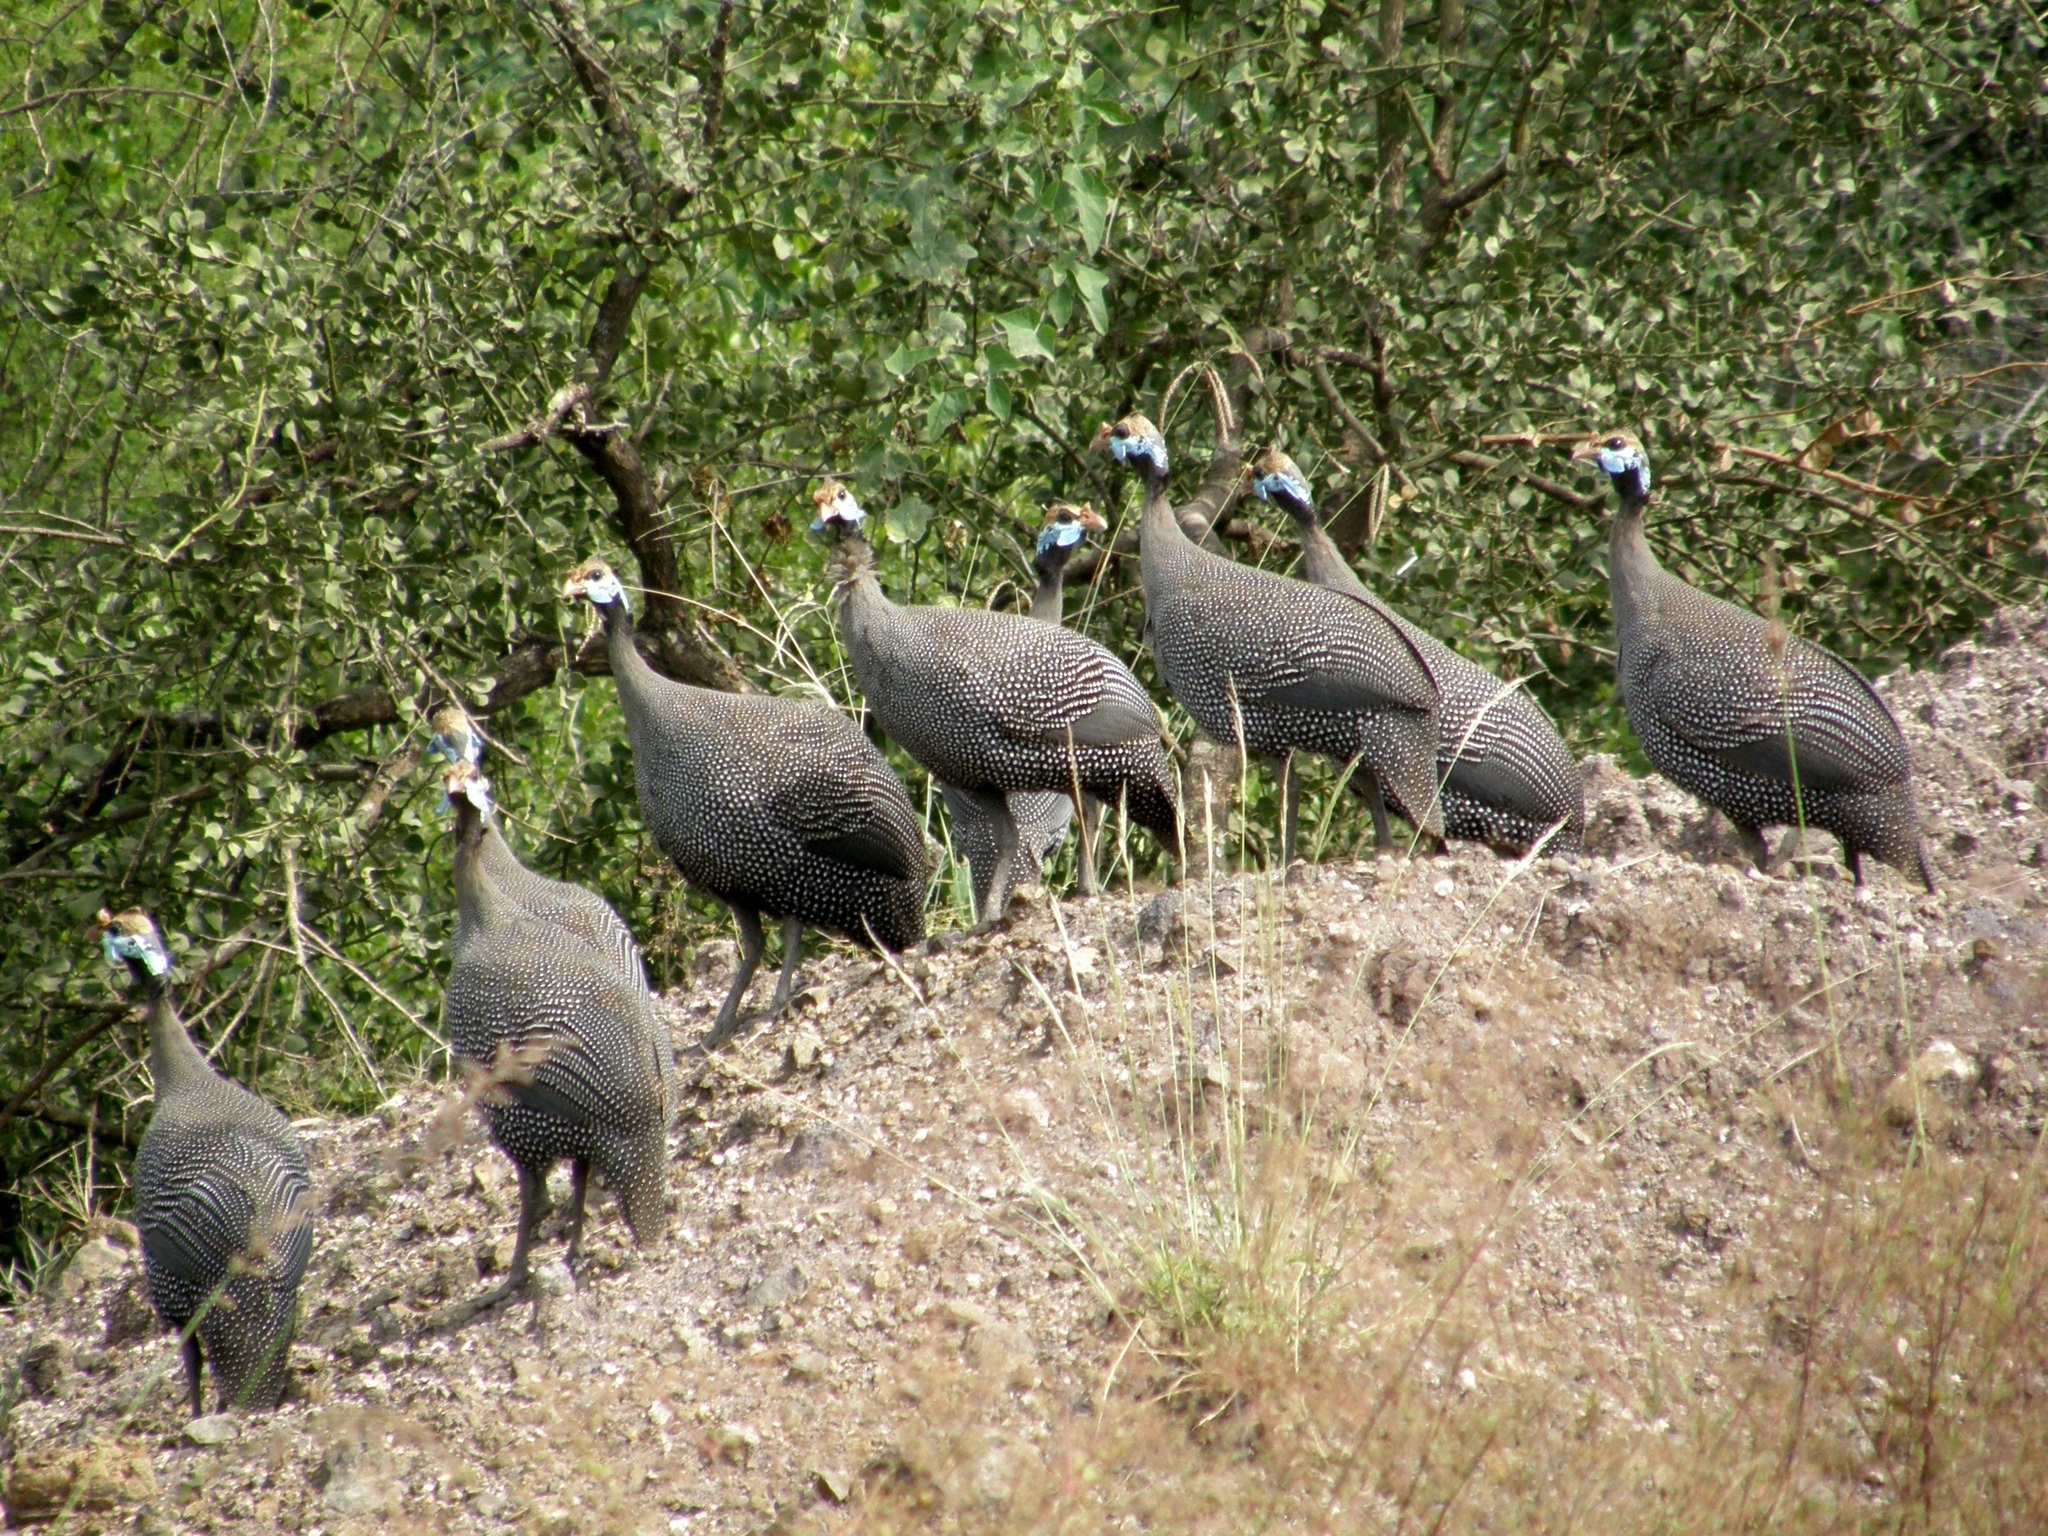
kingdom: Animalia
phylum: Chordata
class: Aves
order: Galliformes
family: Numididae
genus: Numida
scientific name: Numida meleagris
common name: Helmeted guineafowl
